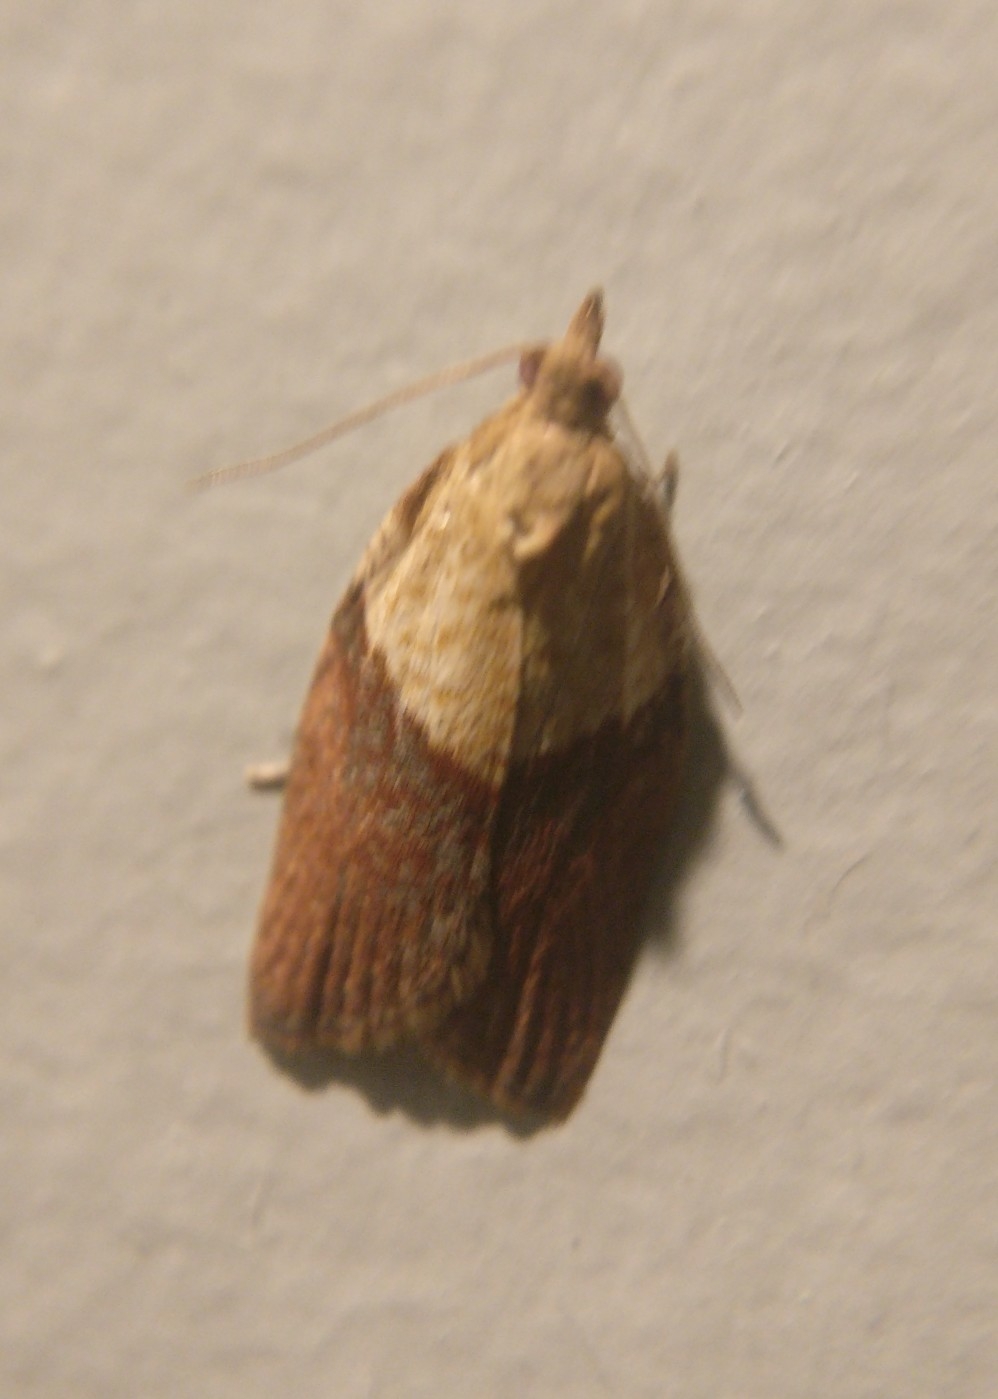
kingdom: Animalia
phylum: Arthropoda
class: Insecta
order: Lepidoptera
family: Tortricidae
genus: Epiphyas
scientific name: Epiphyas postvittana
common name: Light brown apple moth
